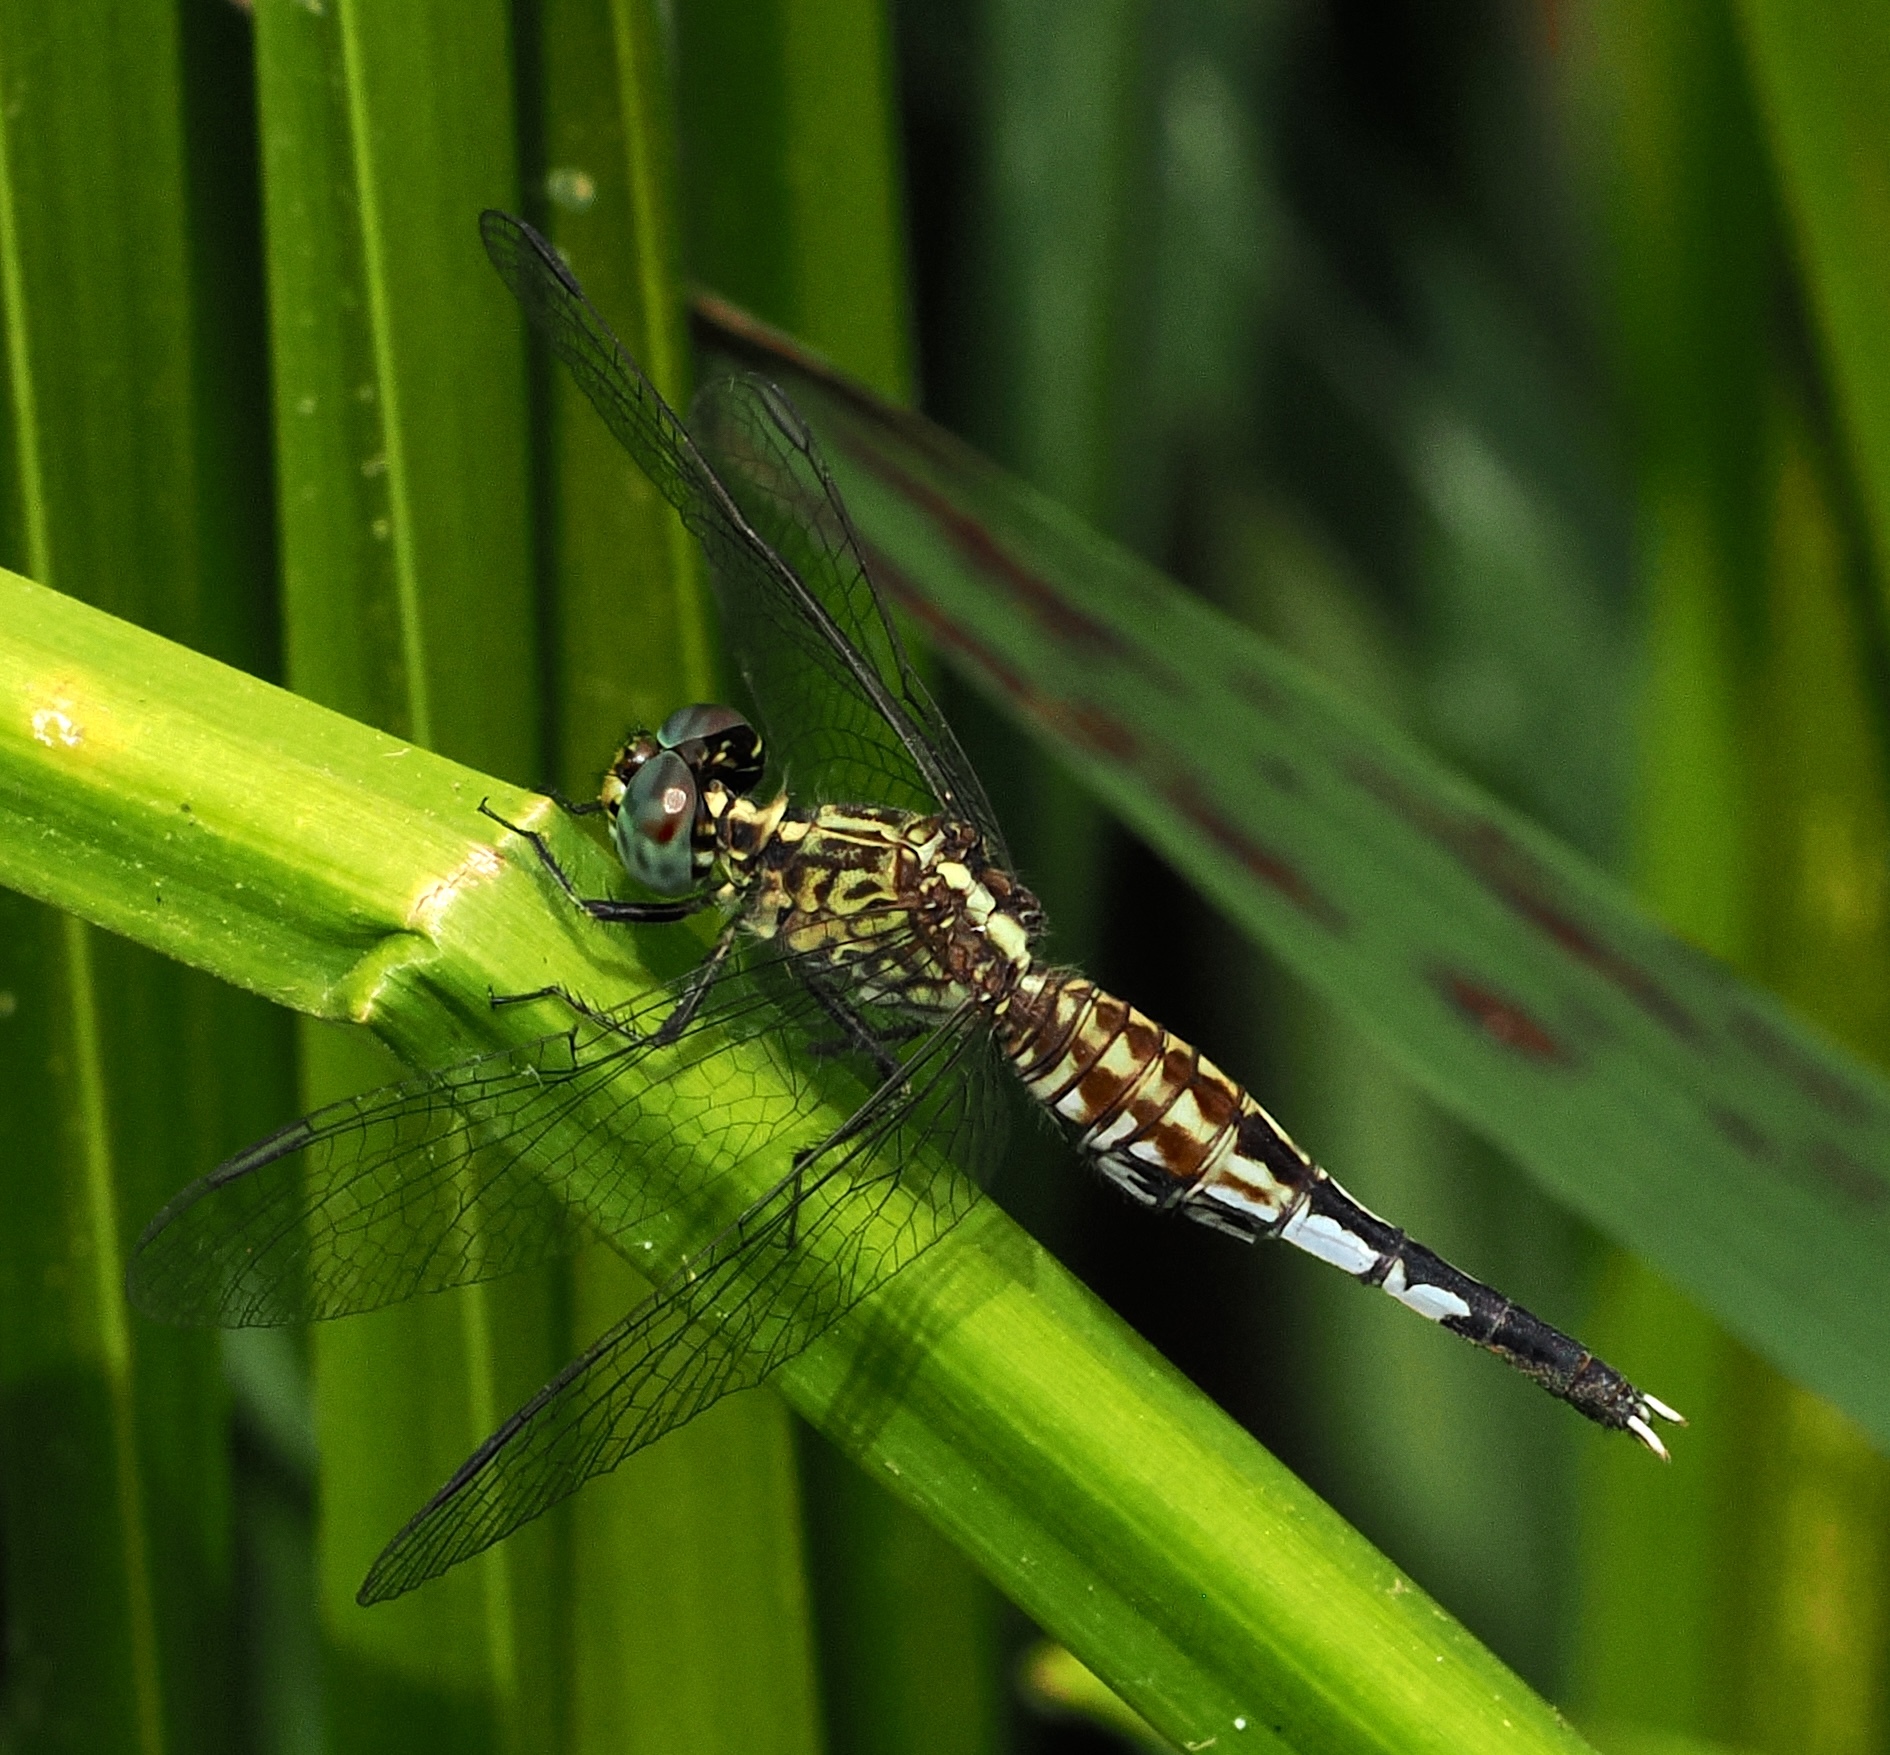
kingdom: Animalia
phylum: Arthropoda
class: Insecta
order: Odonata
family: Libellulidae
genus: Acisoma
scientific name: Acisoma inflatum
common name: Stout pintail
